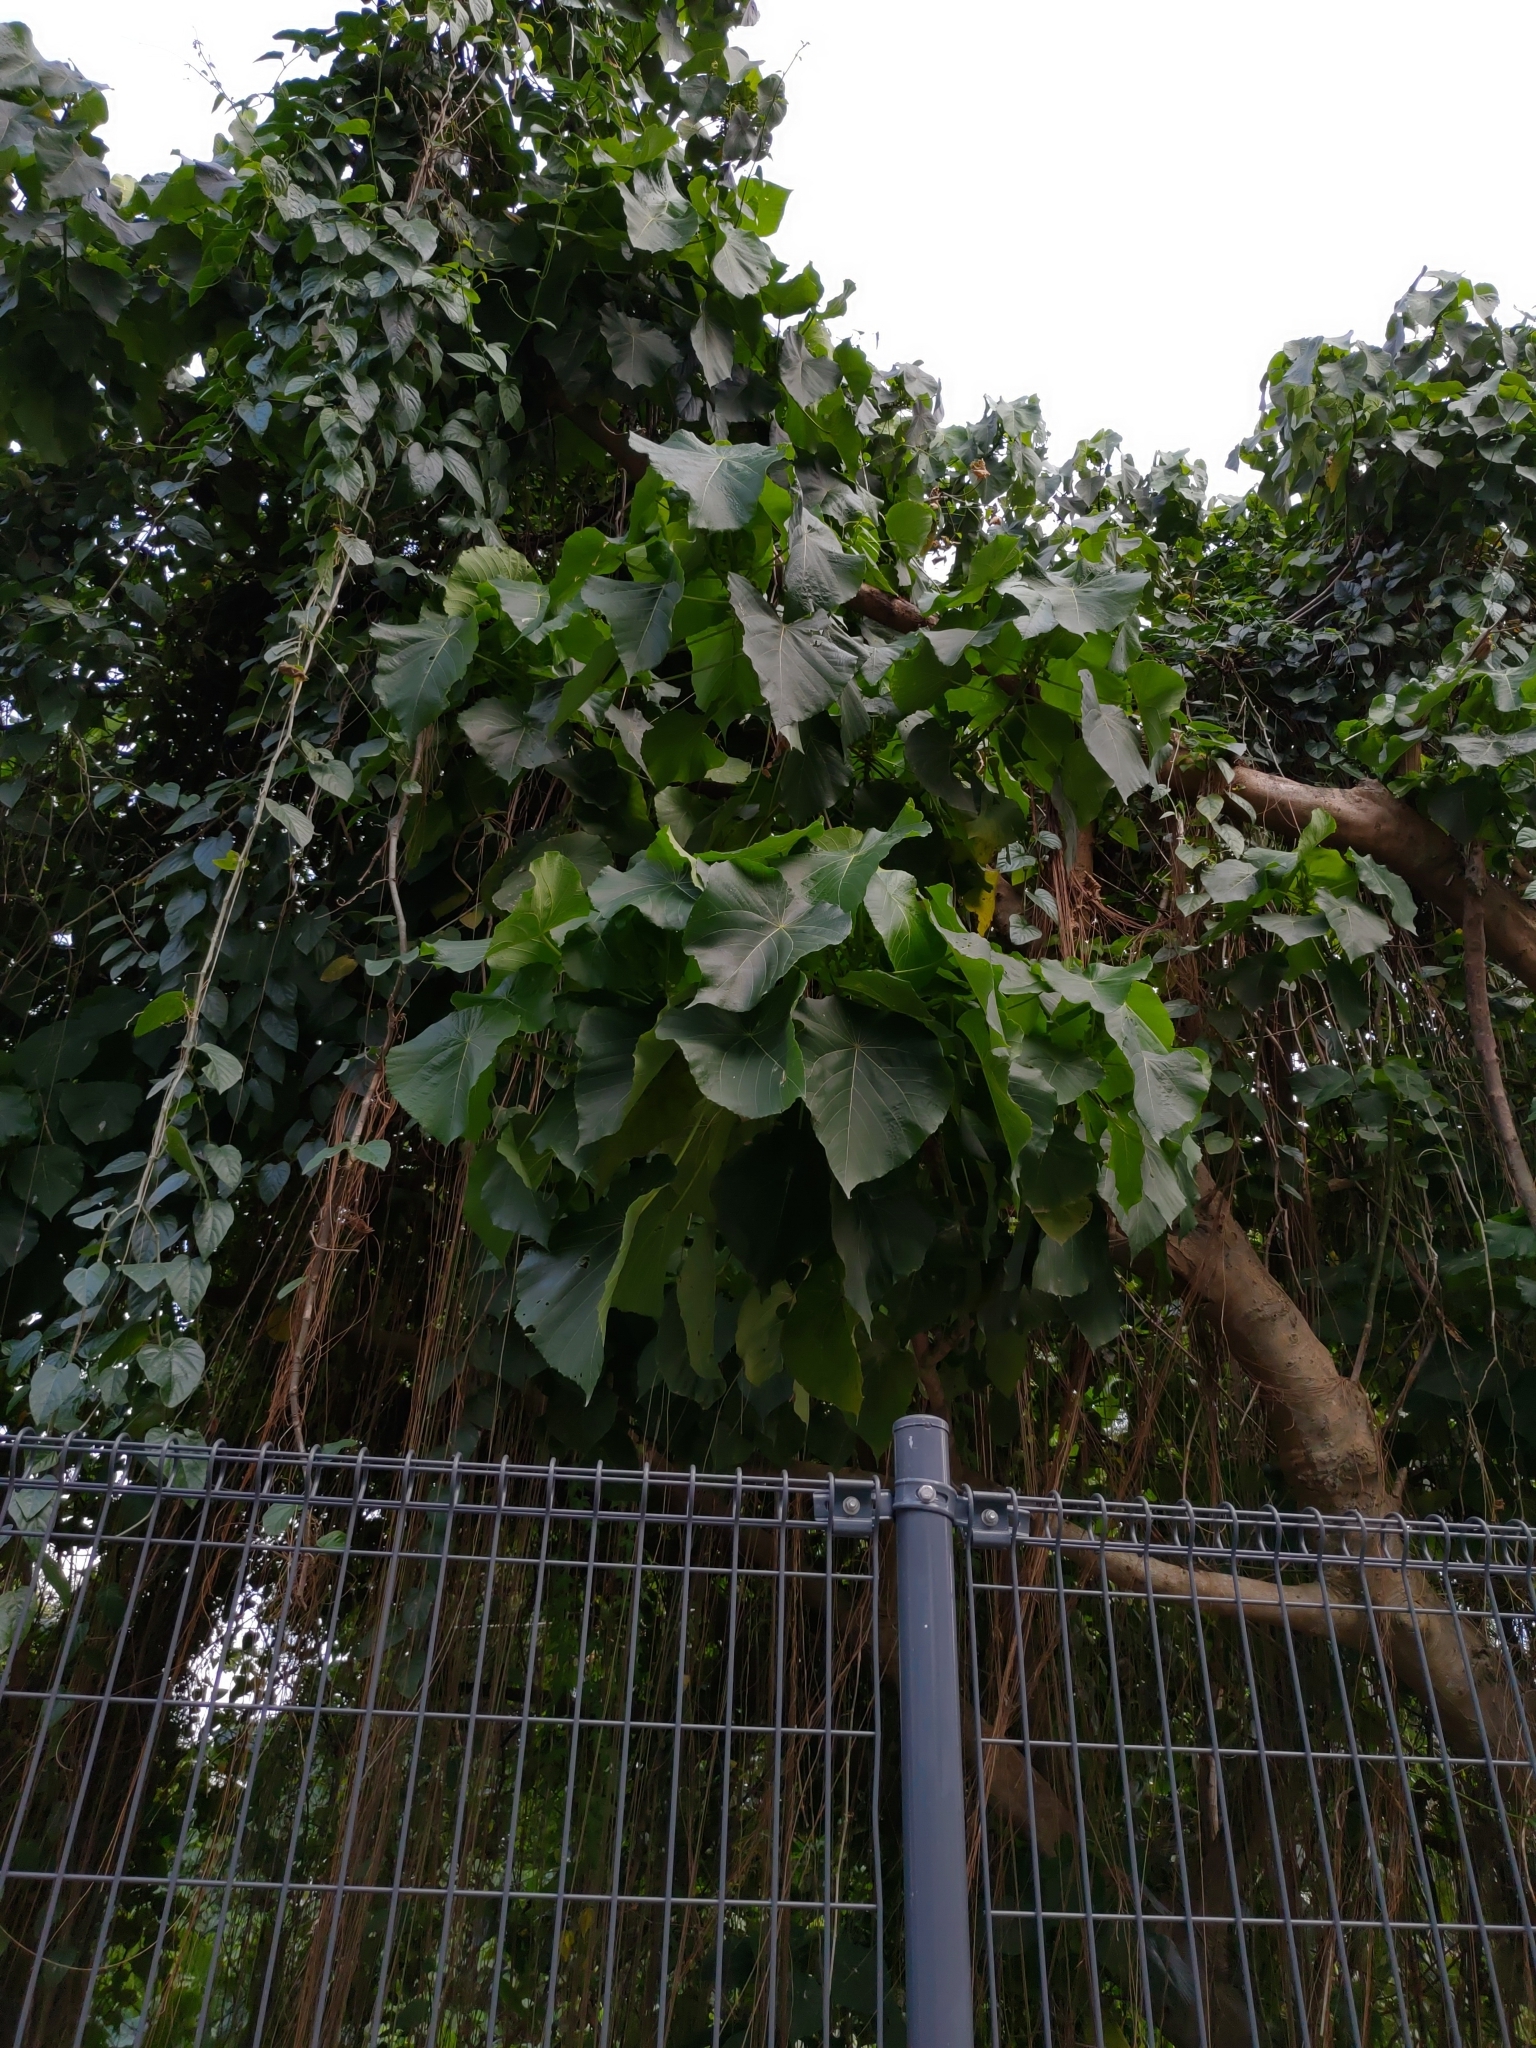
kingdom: Plantae
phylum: Tracheophyta
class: Magnoliopsida
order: Malpighiales
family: Euphorbiaceae
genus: Macaranga
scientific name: Macaranga tanarius
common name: Parasol leaf tree
